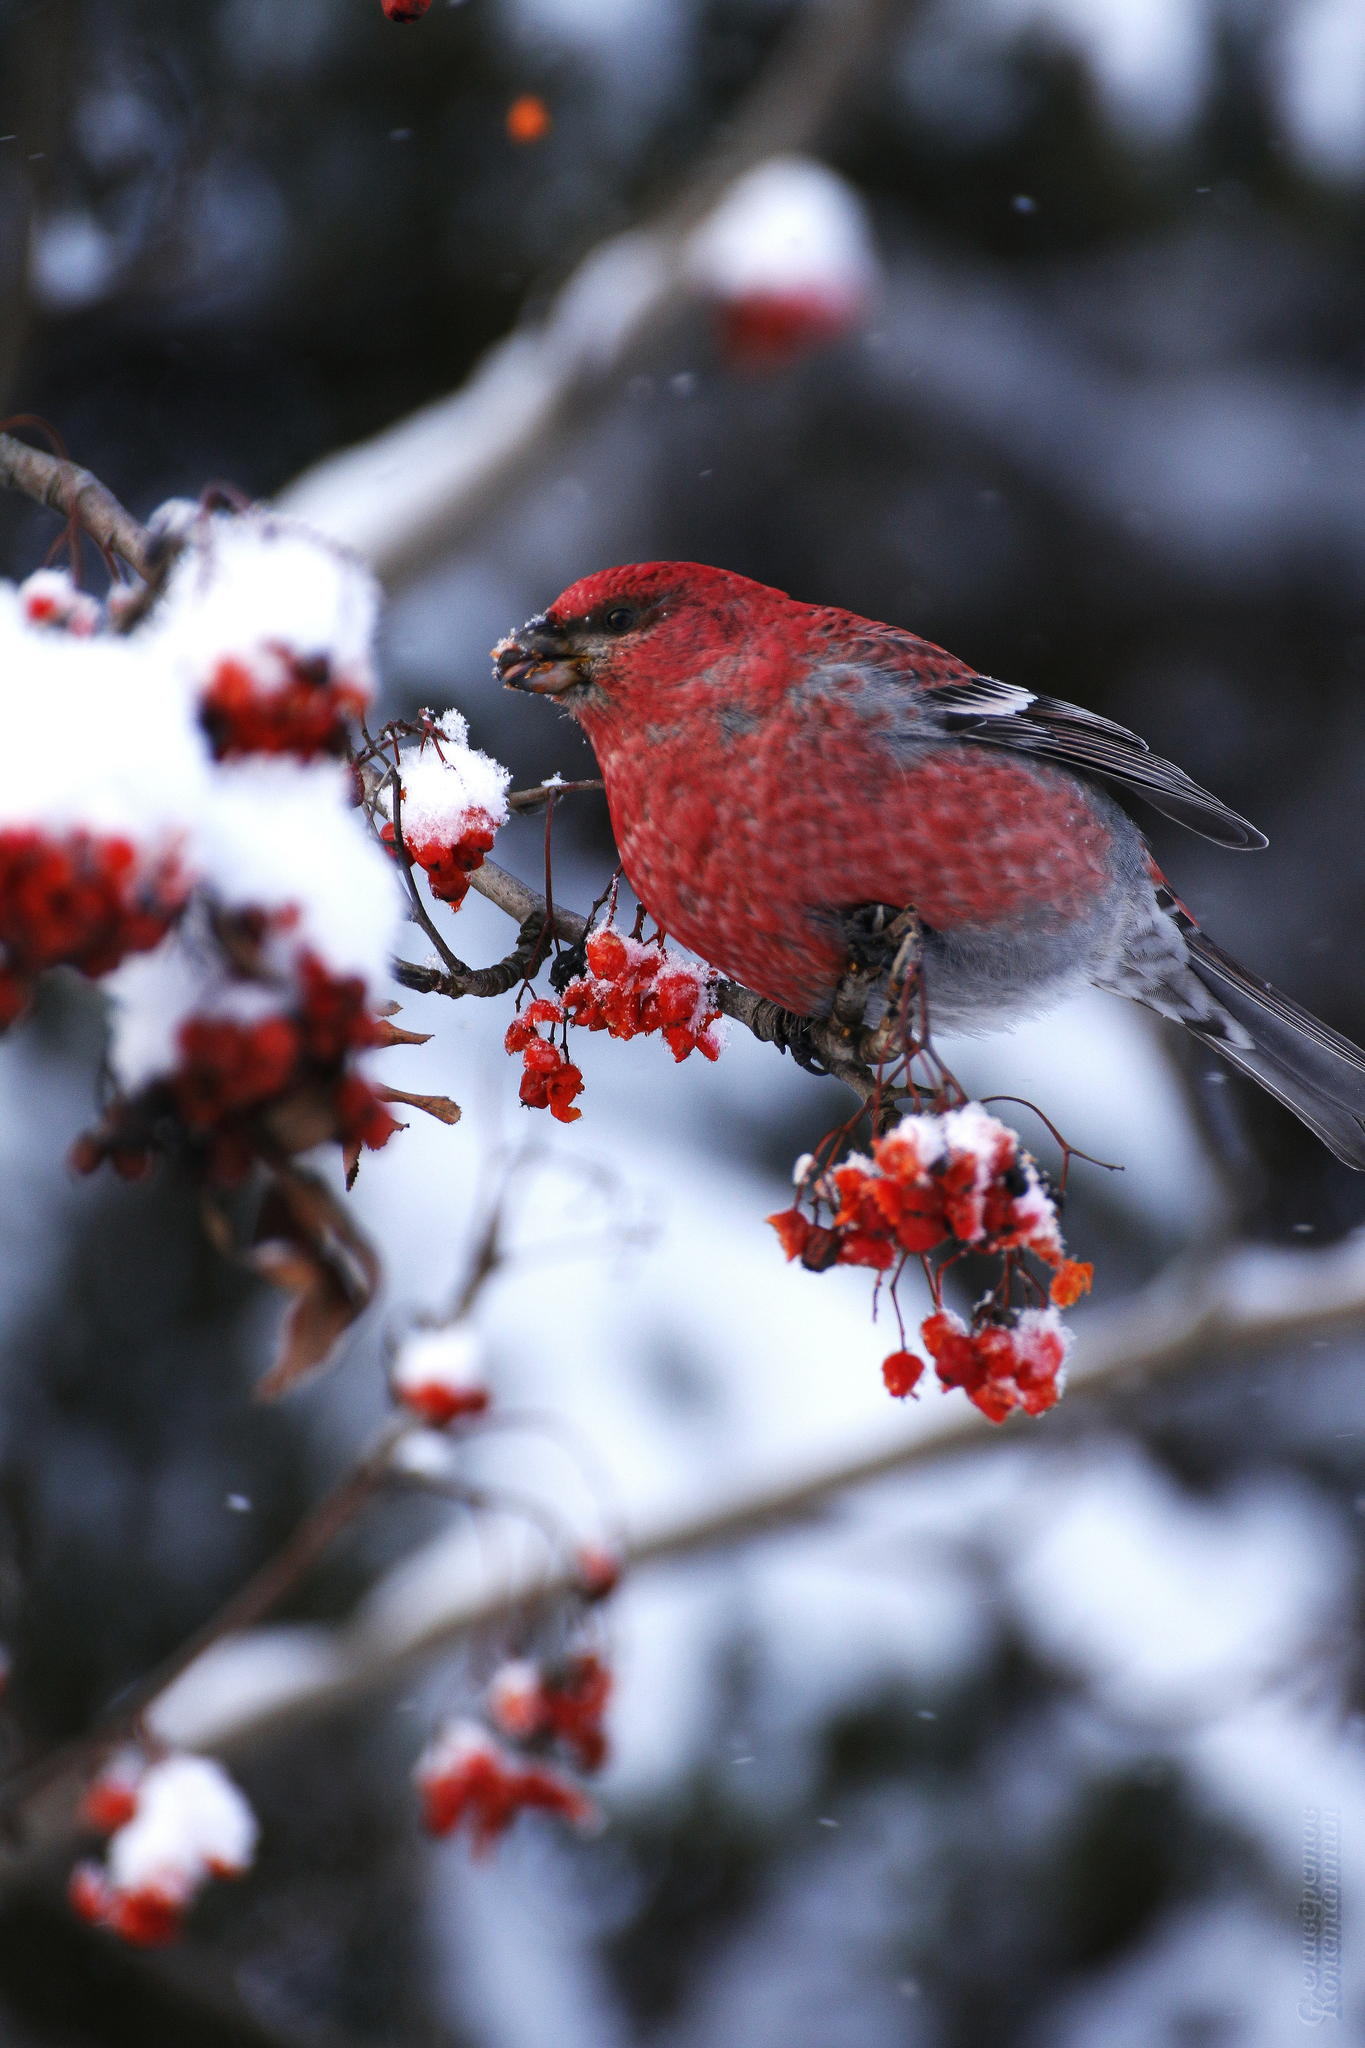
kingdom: Animalia
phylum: Chordata
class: Aves
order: Passeriformes
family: Fringillidae
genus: Pinicola
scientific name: Pinicola enucleator
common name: Pine grosbeak
